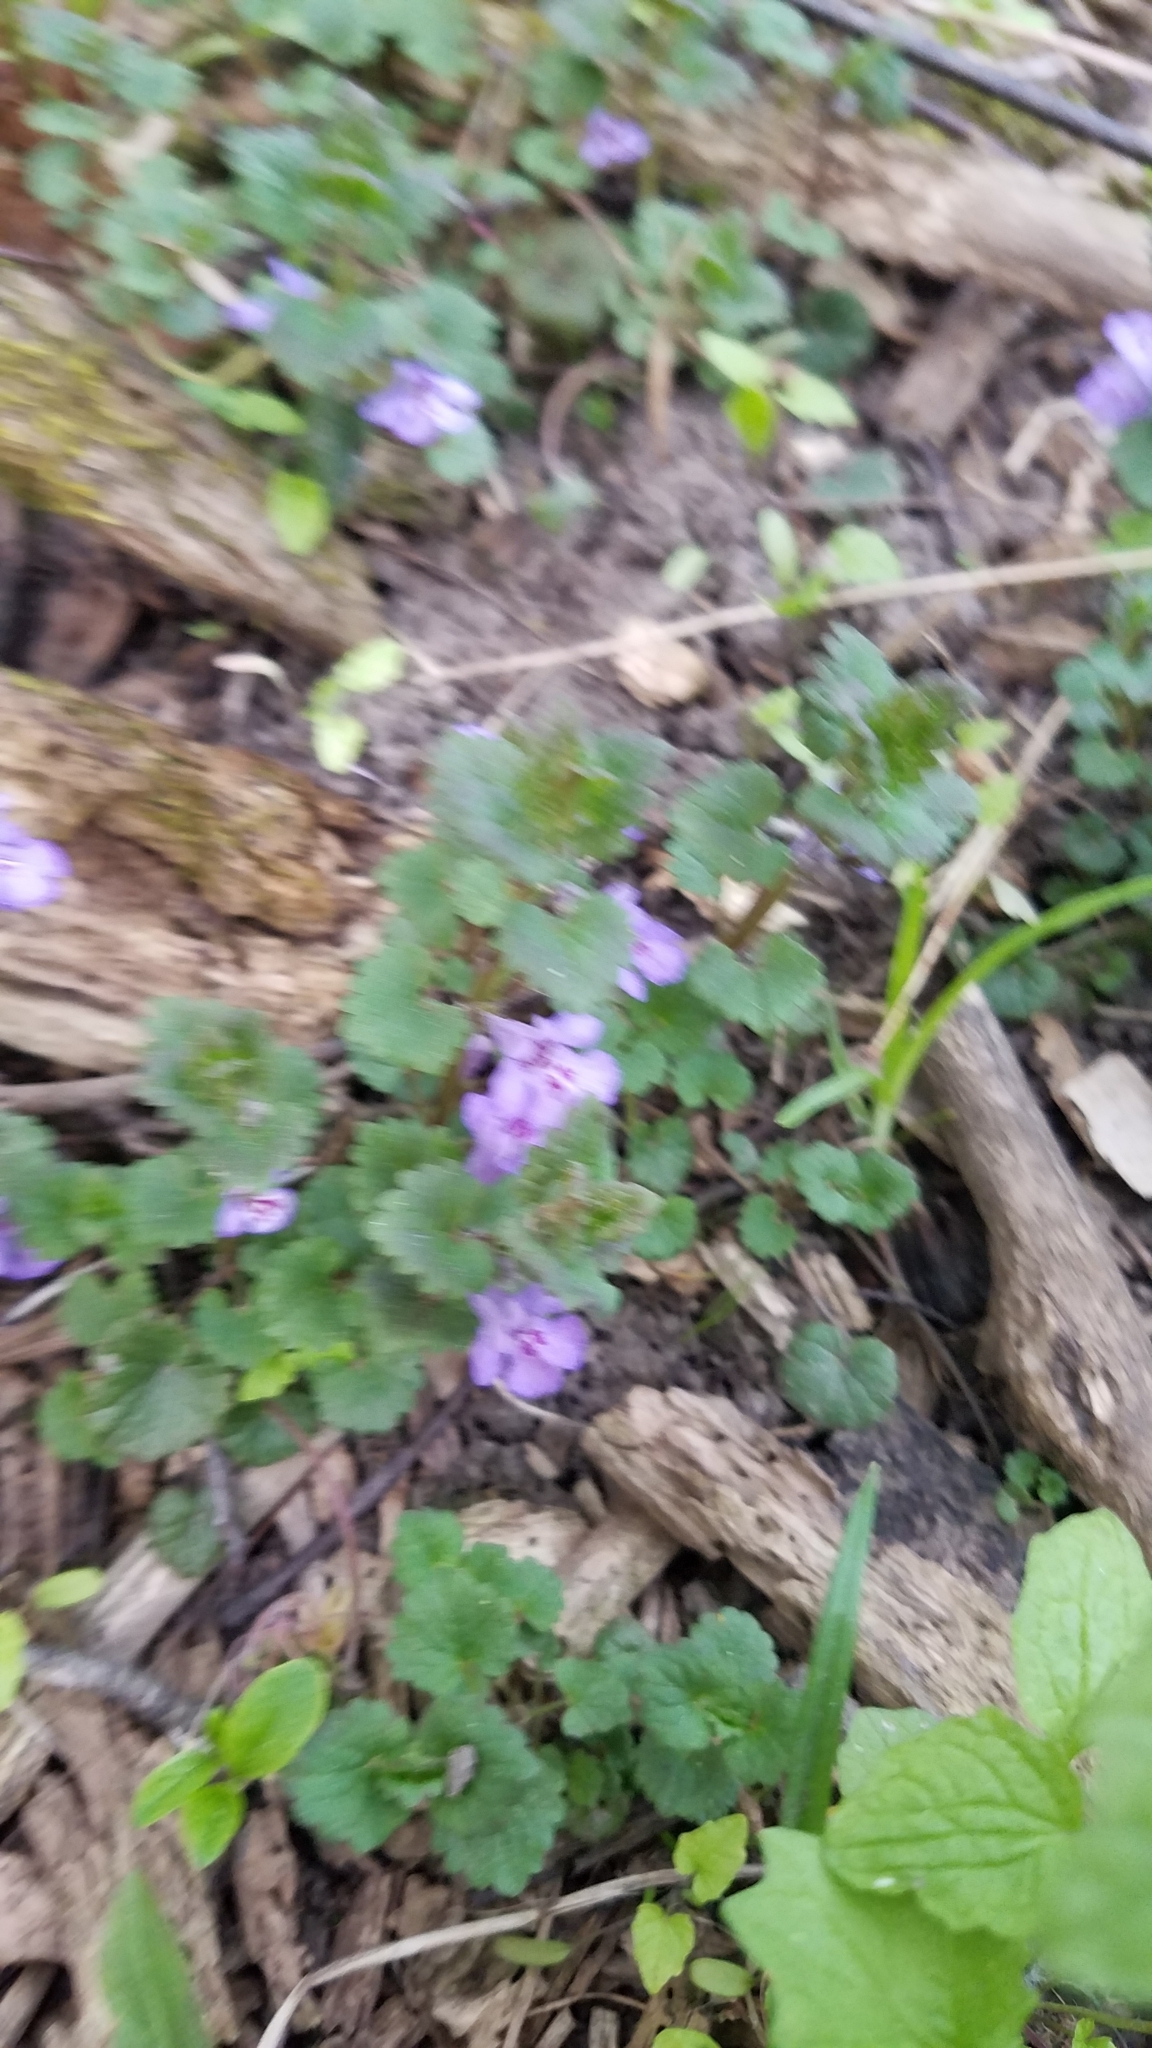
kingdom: Plantae
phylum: Tracheophyta
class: Magnoliopsida
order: Lamiales
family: Lamiaceae
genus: Glechoma
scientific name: Glechoma hederacea
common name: Ground ivy
